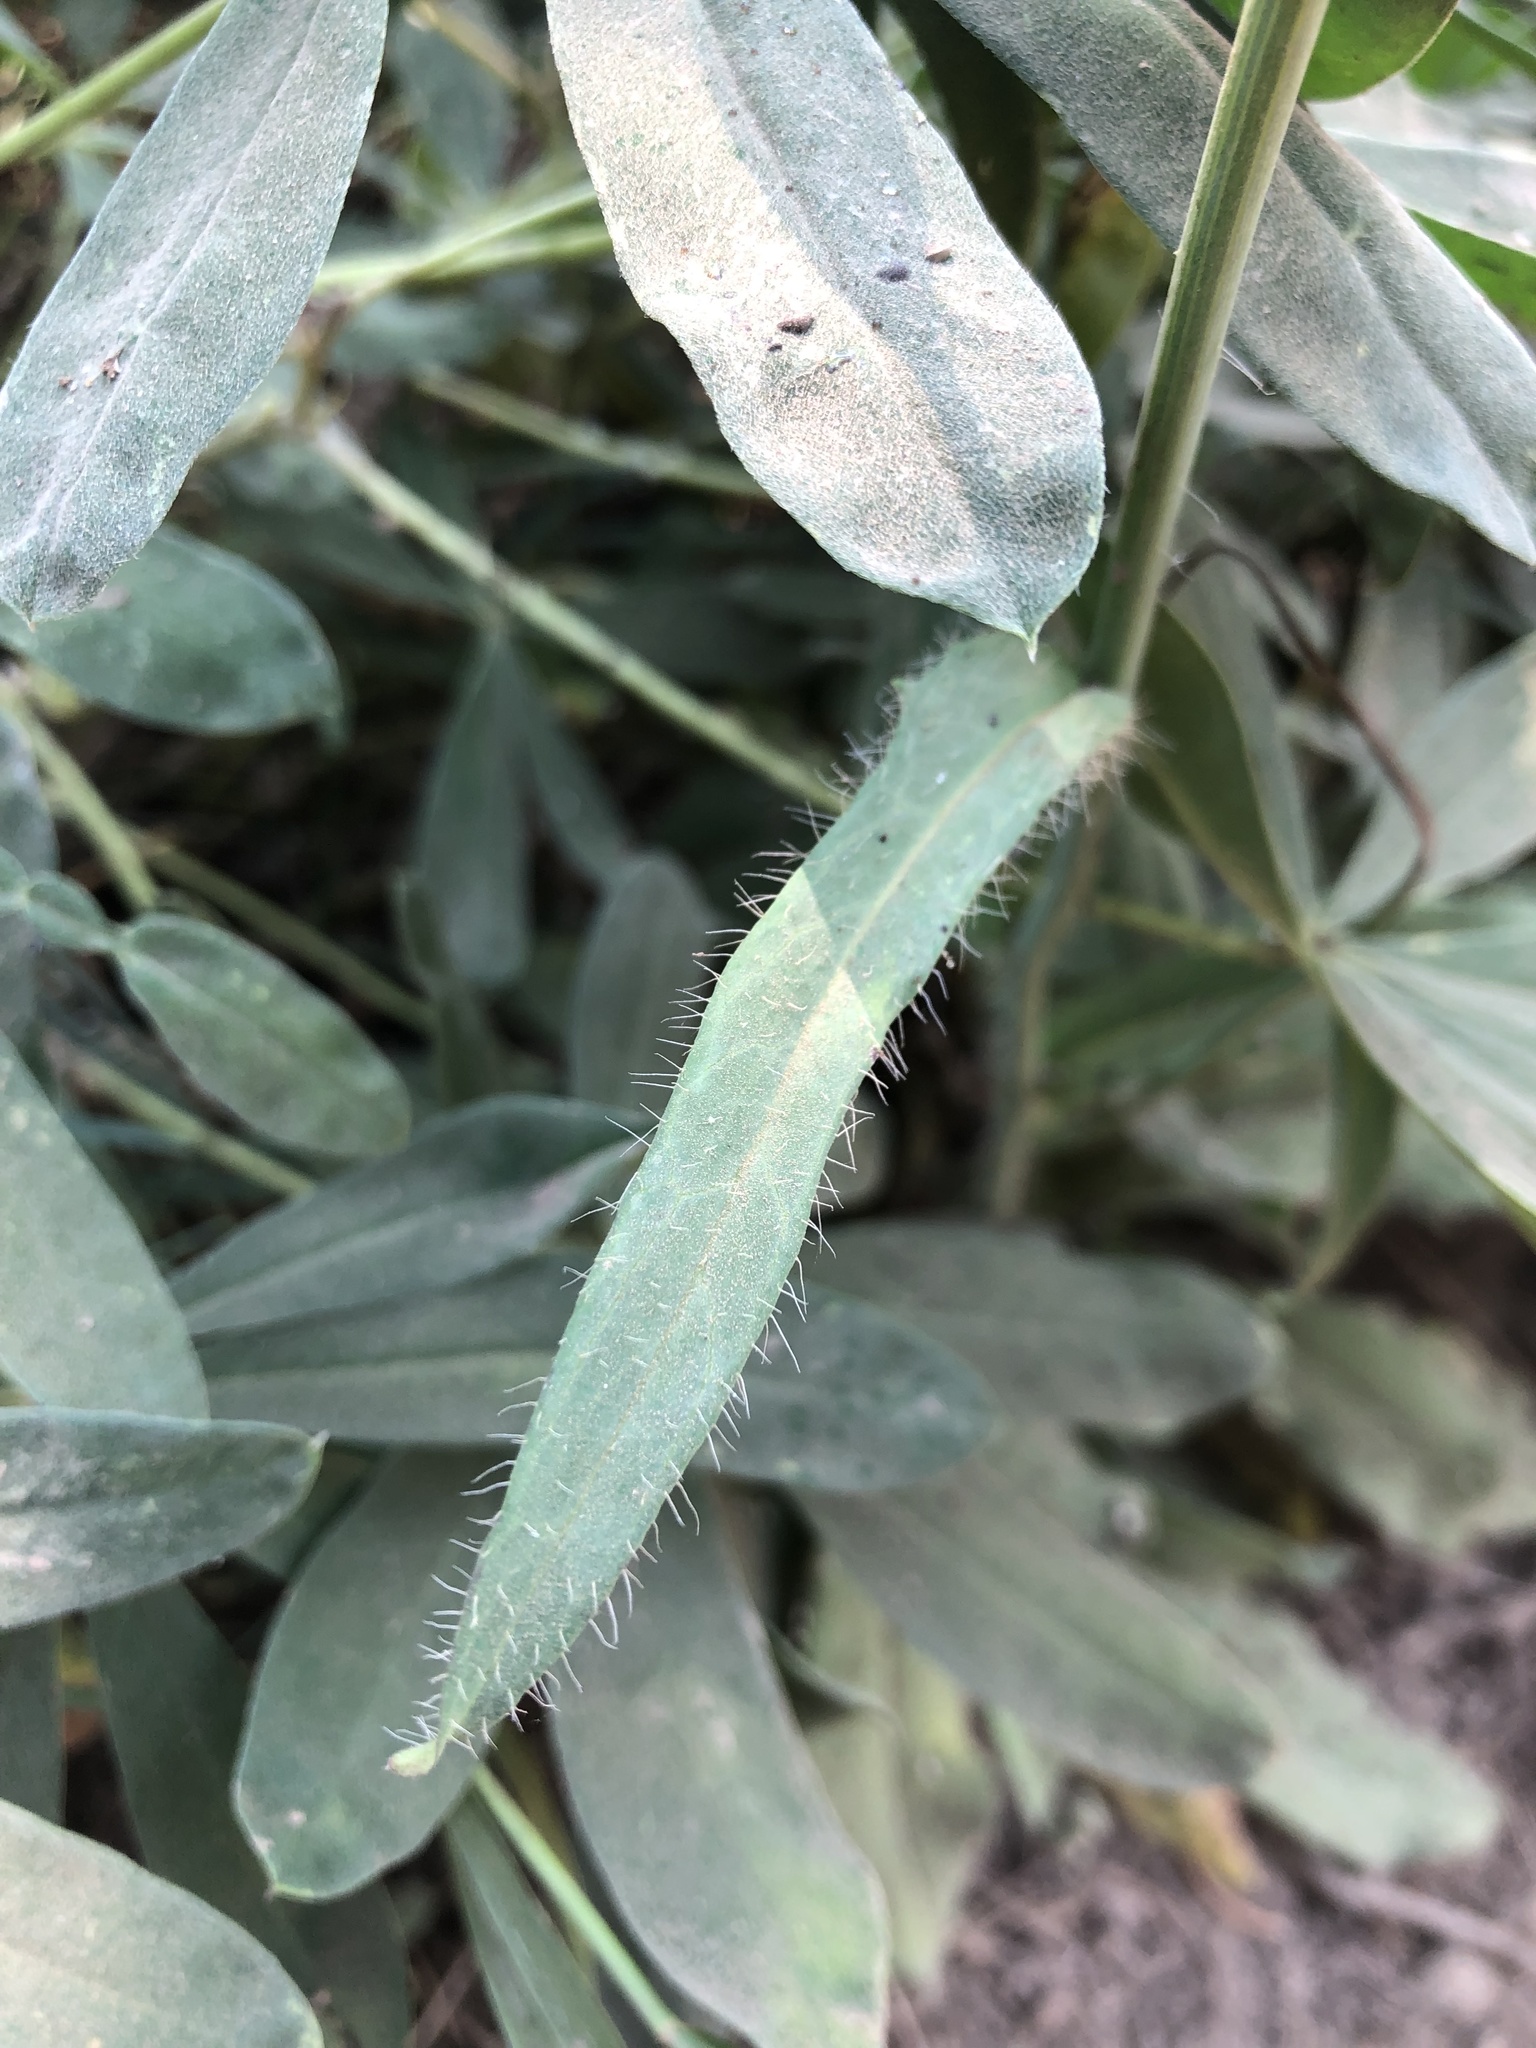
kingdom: Plantae
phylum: Tracheophyta
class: Magnoliopsida
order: Asterales
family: Asteraceae
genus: Hieracium
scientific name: Hieracium albiflorum
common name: White hawkweed
